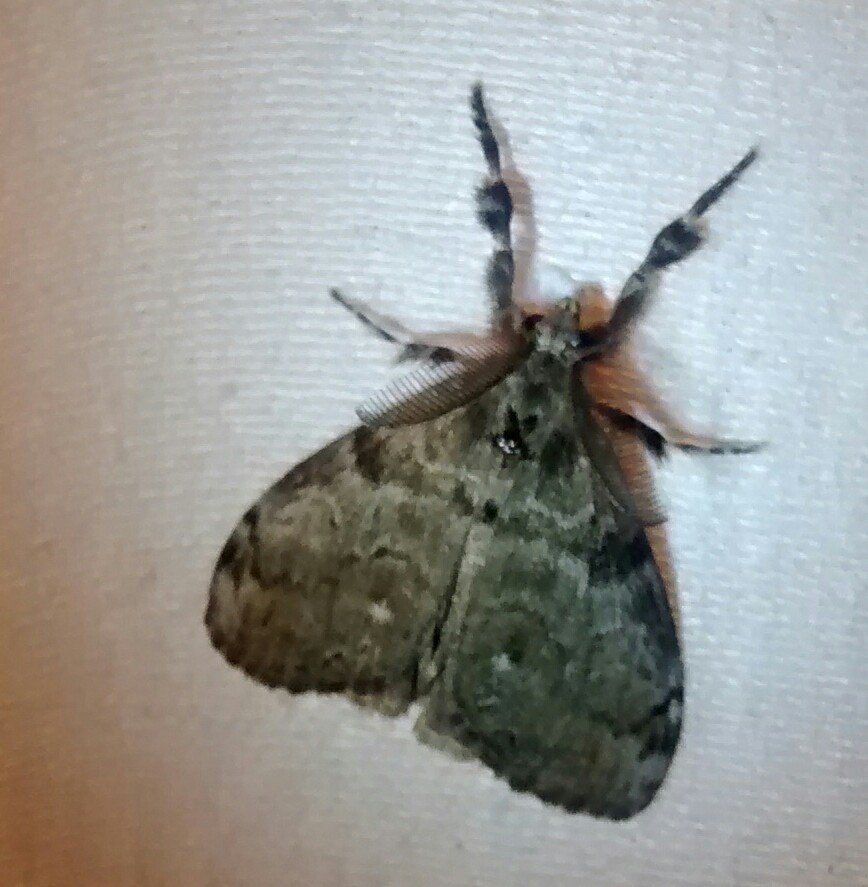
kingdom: Animalia
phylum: Arthropoda
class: Insecta
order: Lepidoptera
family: Erebidae
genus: Orgyia
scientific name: Orgyia leucostigma
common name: White-marked tussock moth
